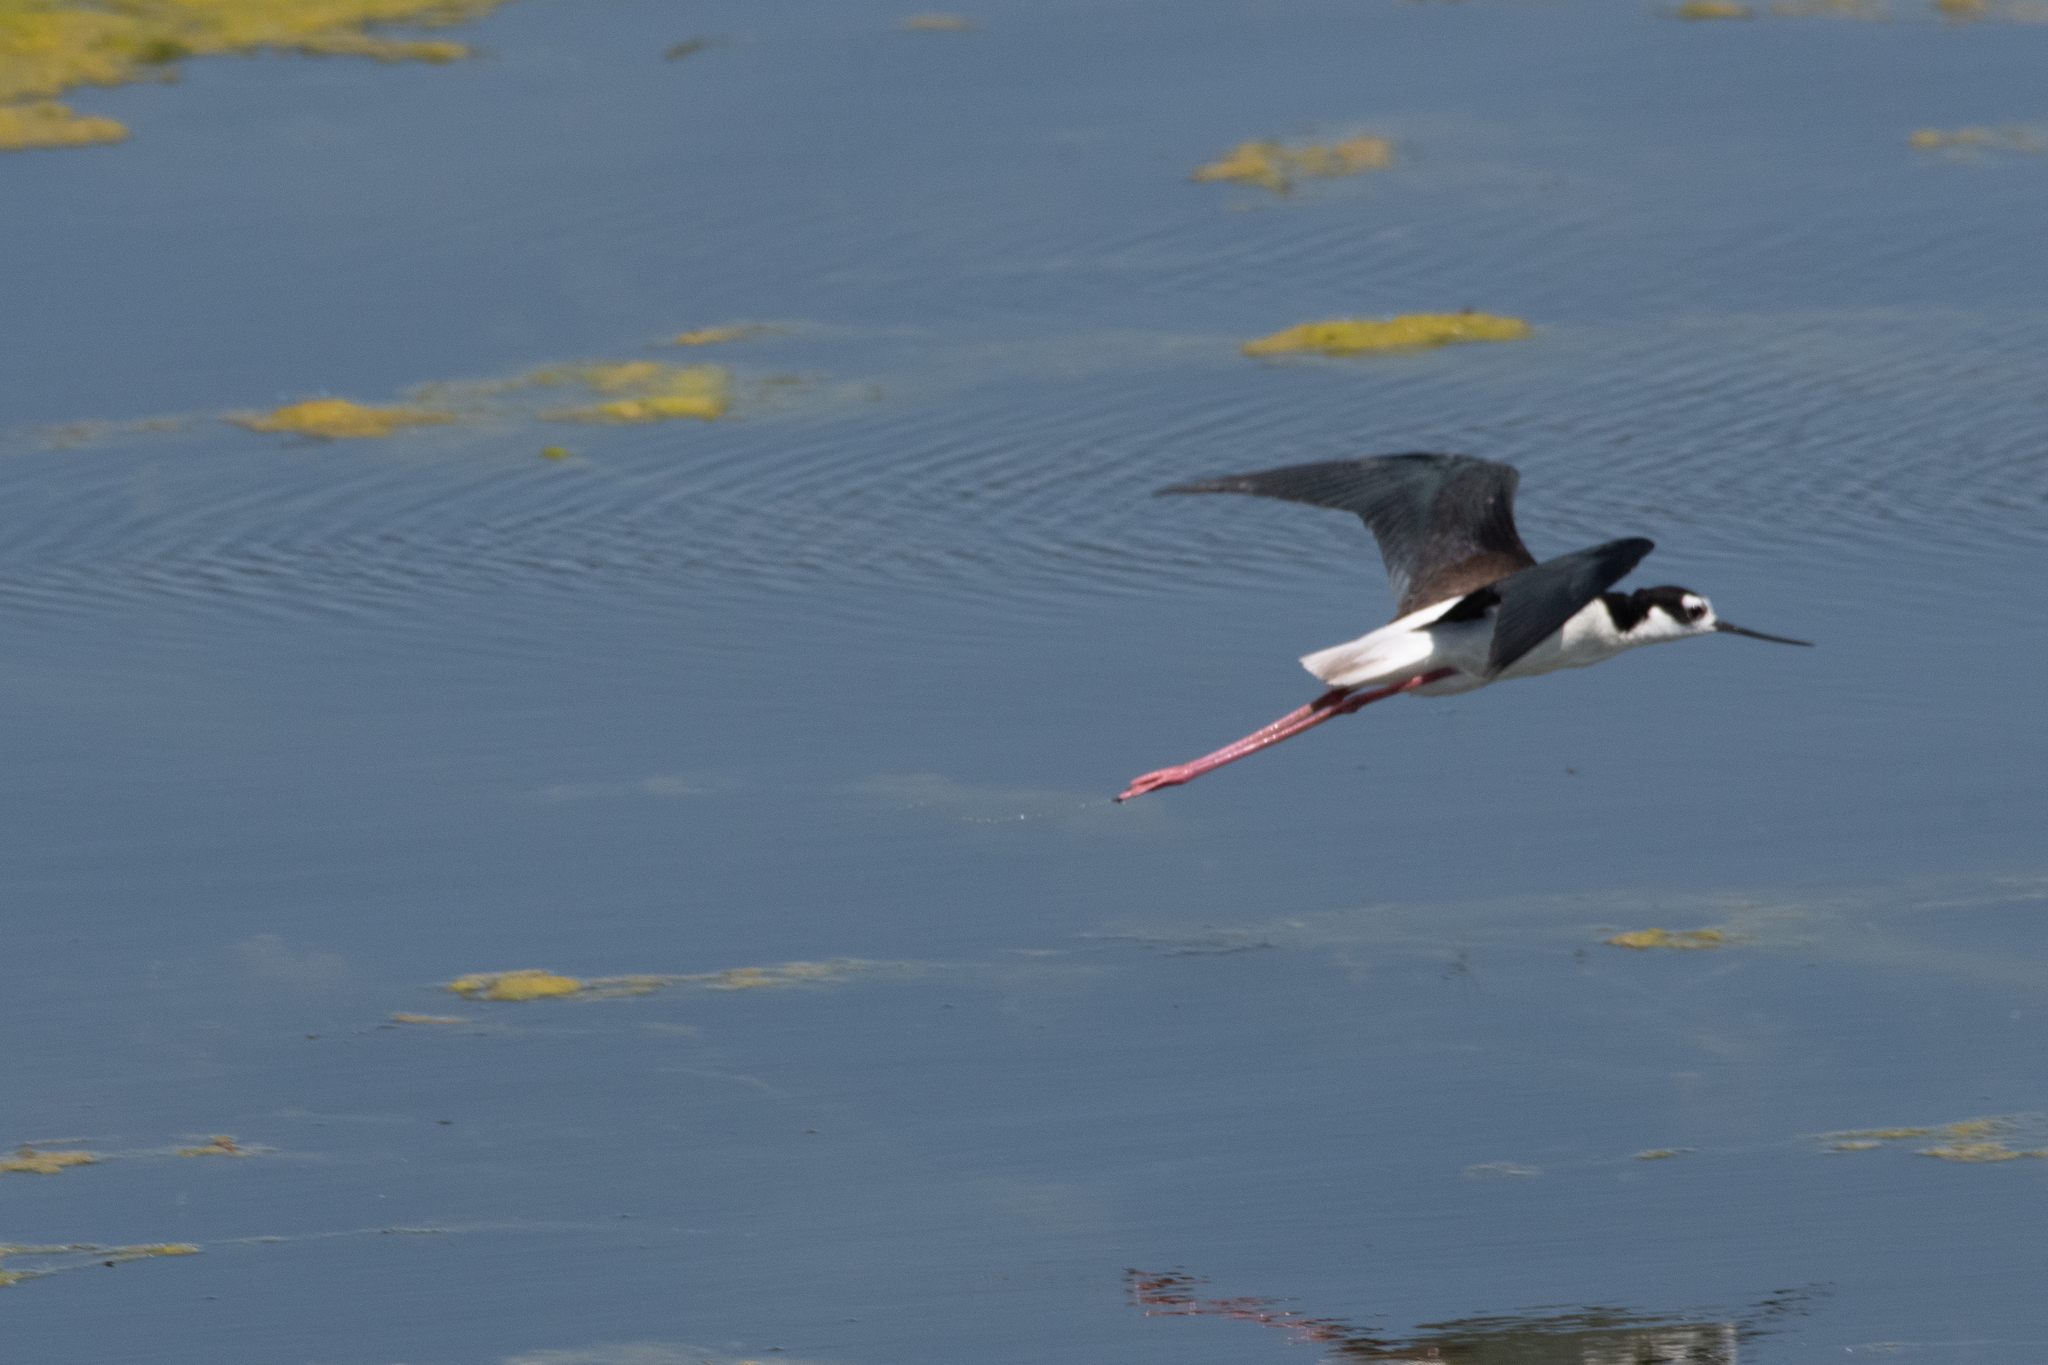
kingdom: Animalia
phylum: Chordata
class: Aves
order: Charadriiformes
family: Recurvirostridae
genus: Himantopus
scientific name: Himantopus mexicanus
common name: Black-necked stilt
